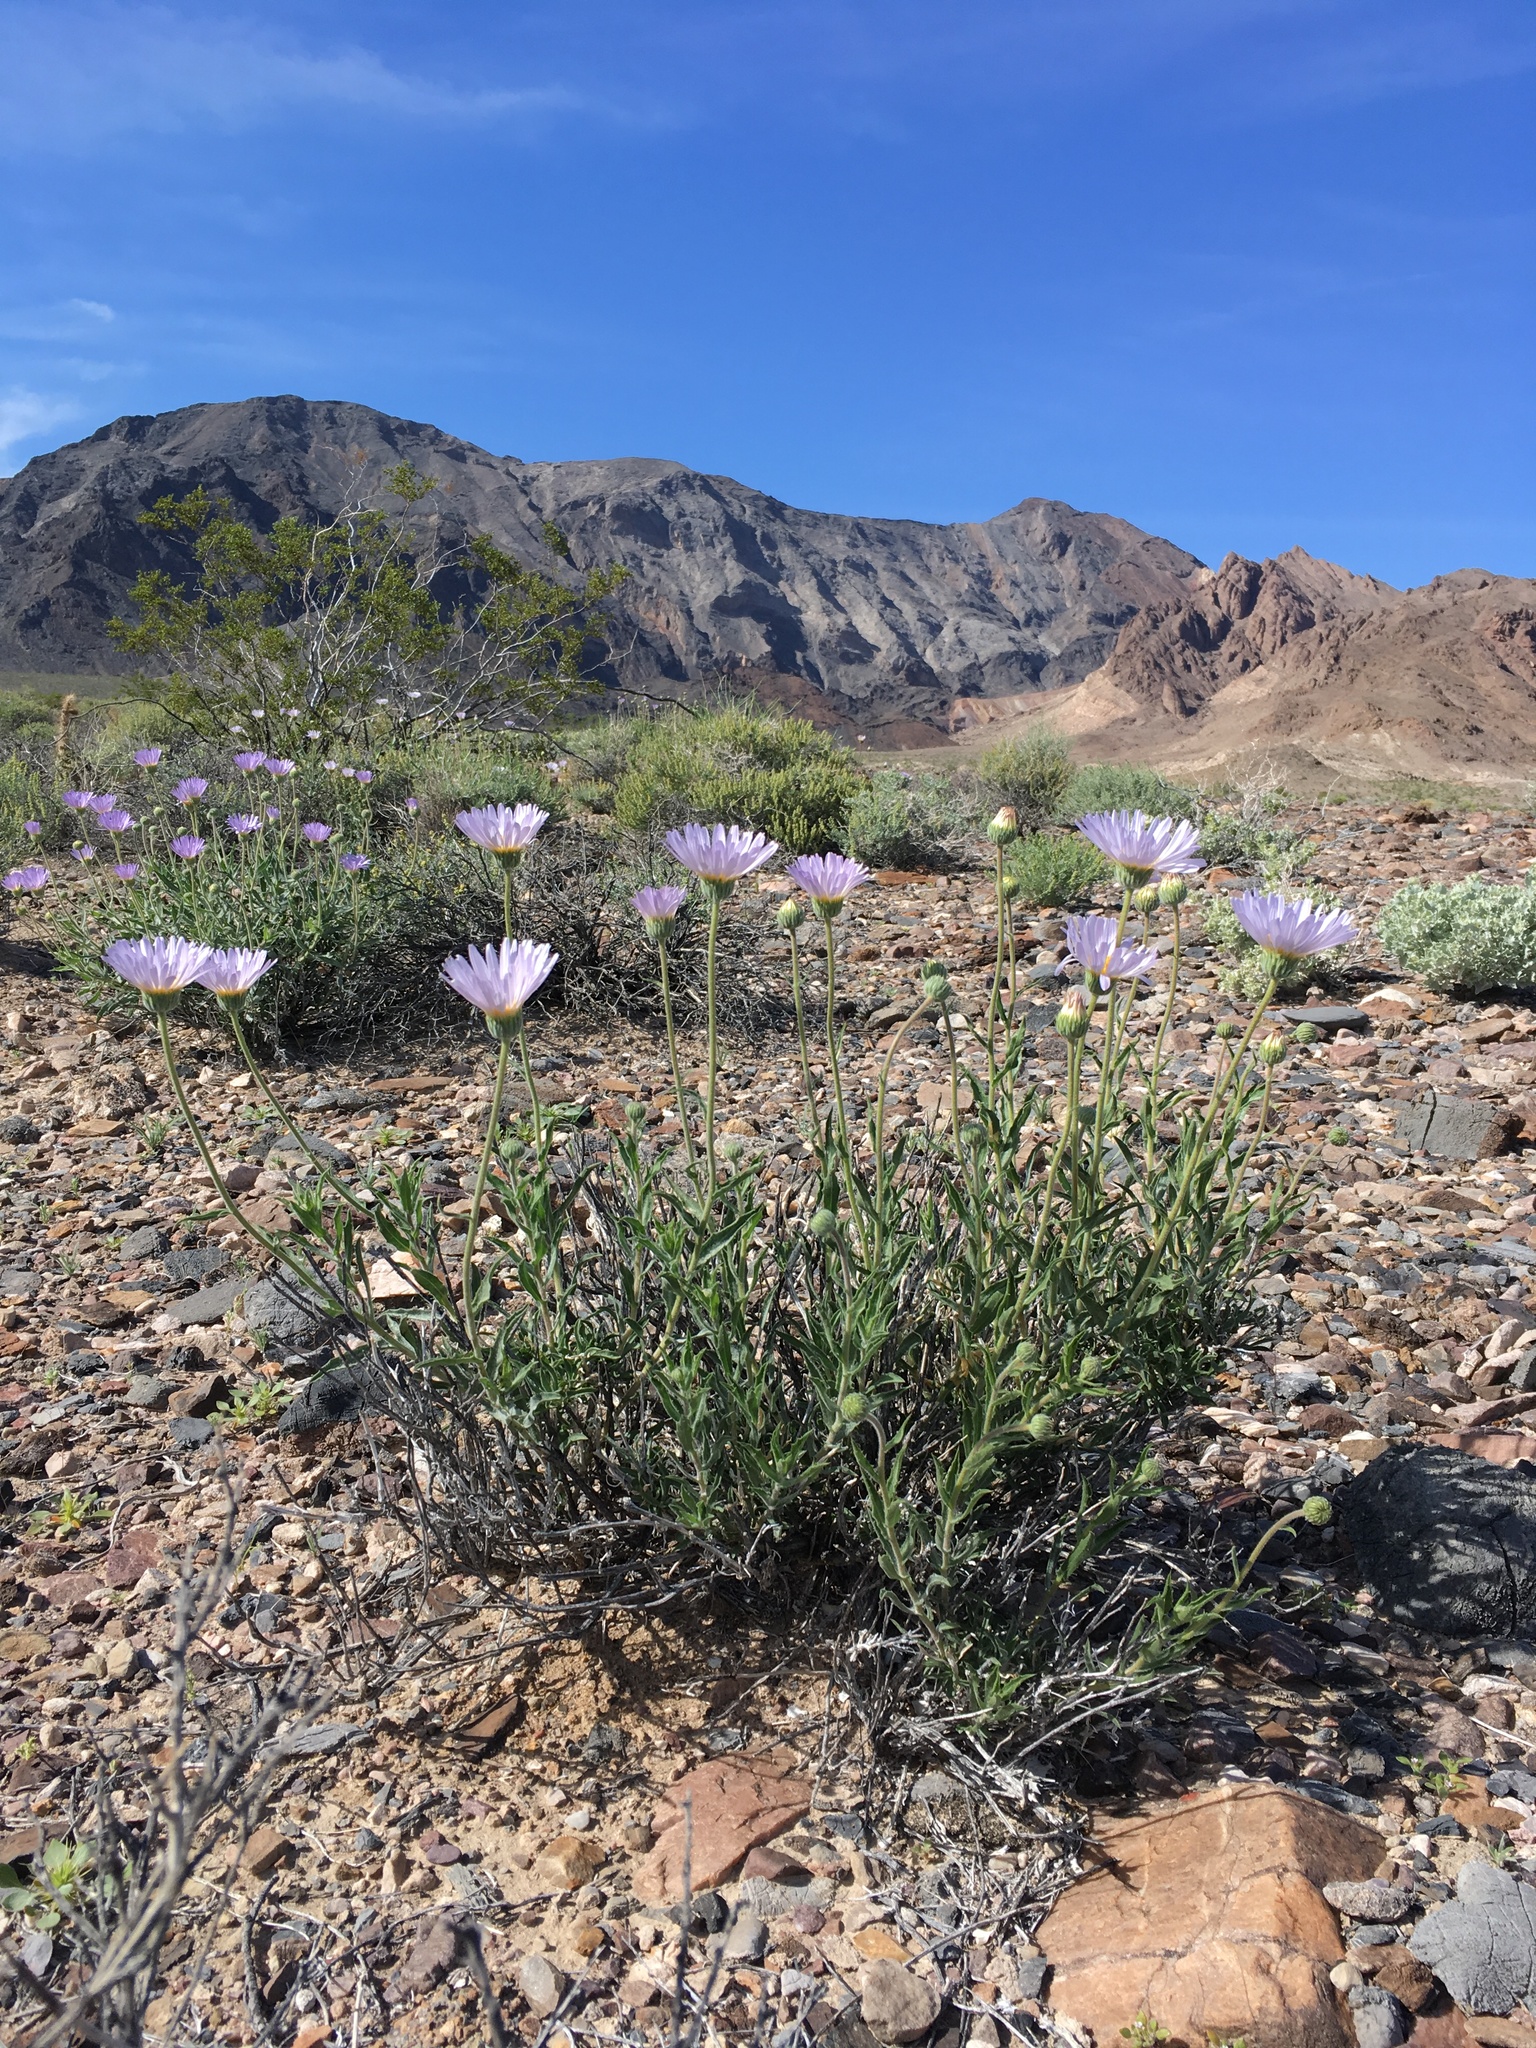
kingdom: Plantae
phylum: Tracheophyta
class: Magnoliopsida
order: Asterales
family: Asteraceae
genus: Xylorhiza
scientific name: Xylorhiza tortifolia
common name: Hurt-leaf woody-aster
